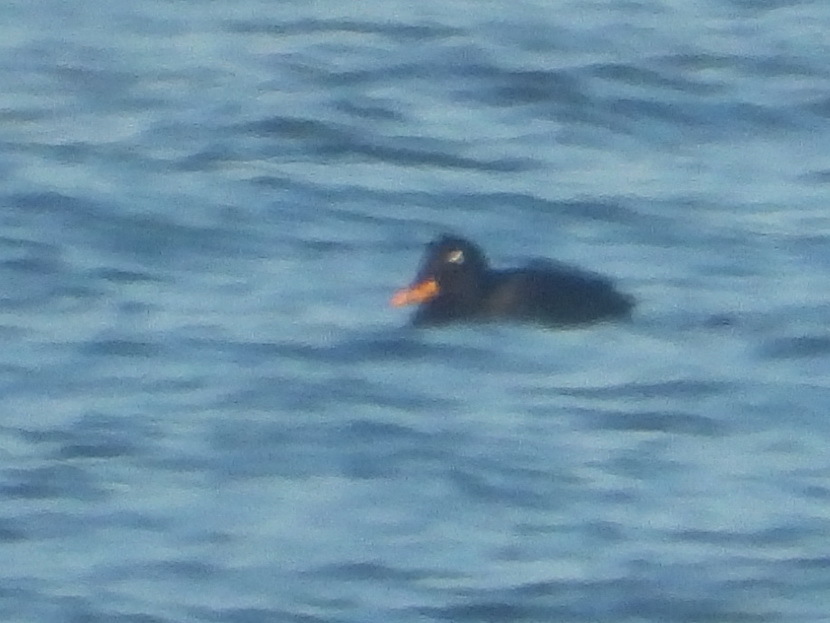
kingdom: Animalia
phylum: Chordata
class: Aves
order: Anseriformes
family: Anatidae
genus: Melanitta
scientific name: Melanitta fusca
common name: Velvet scoter
